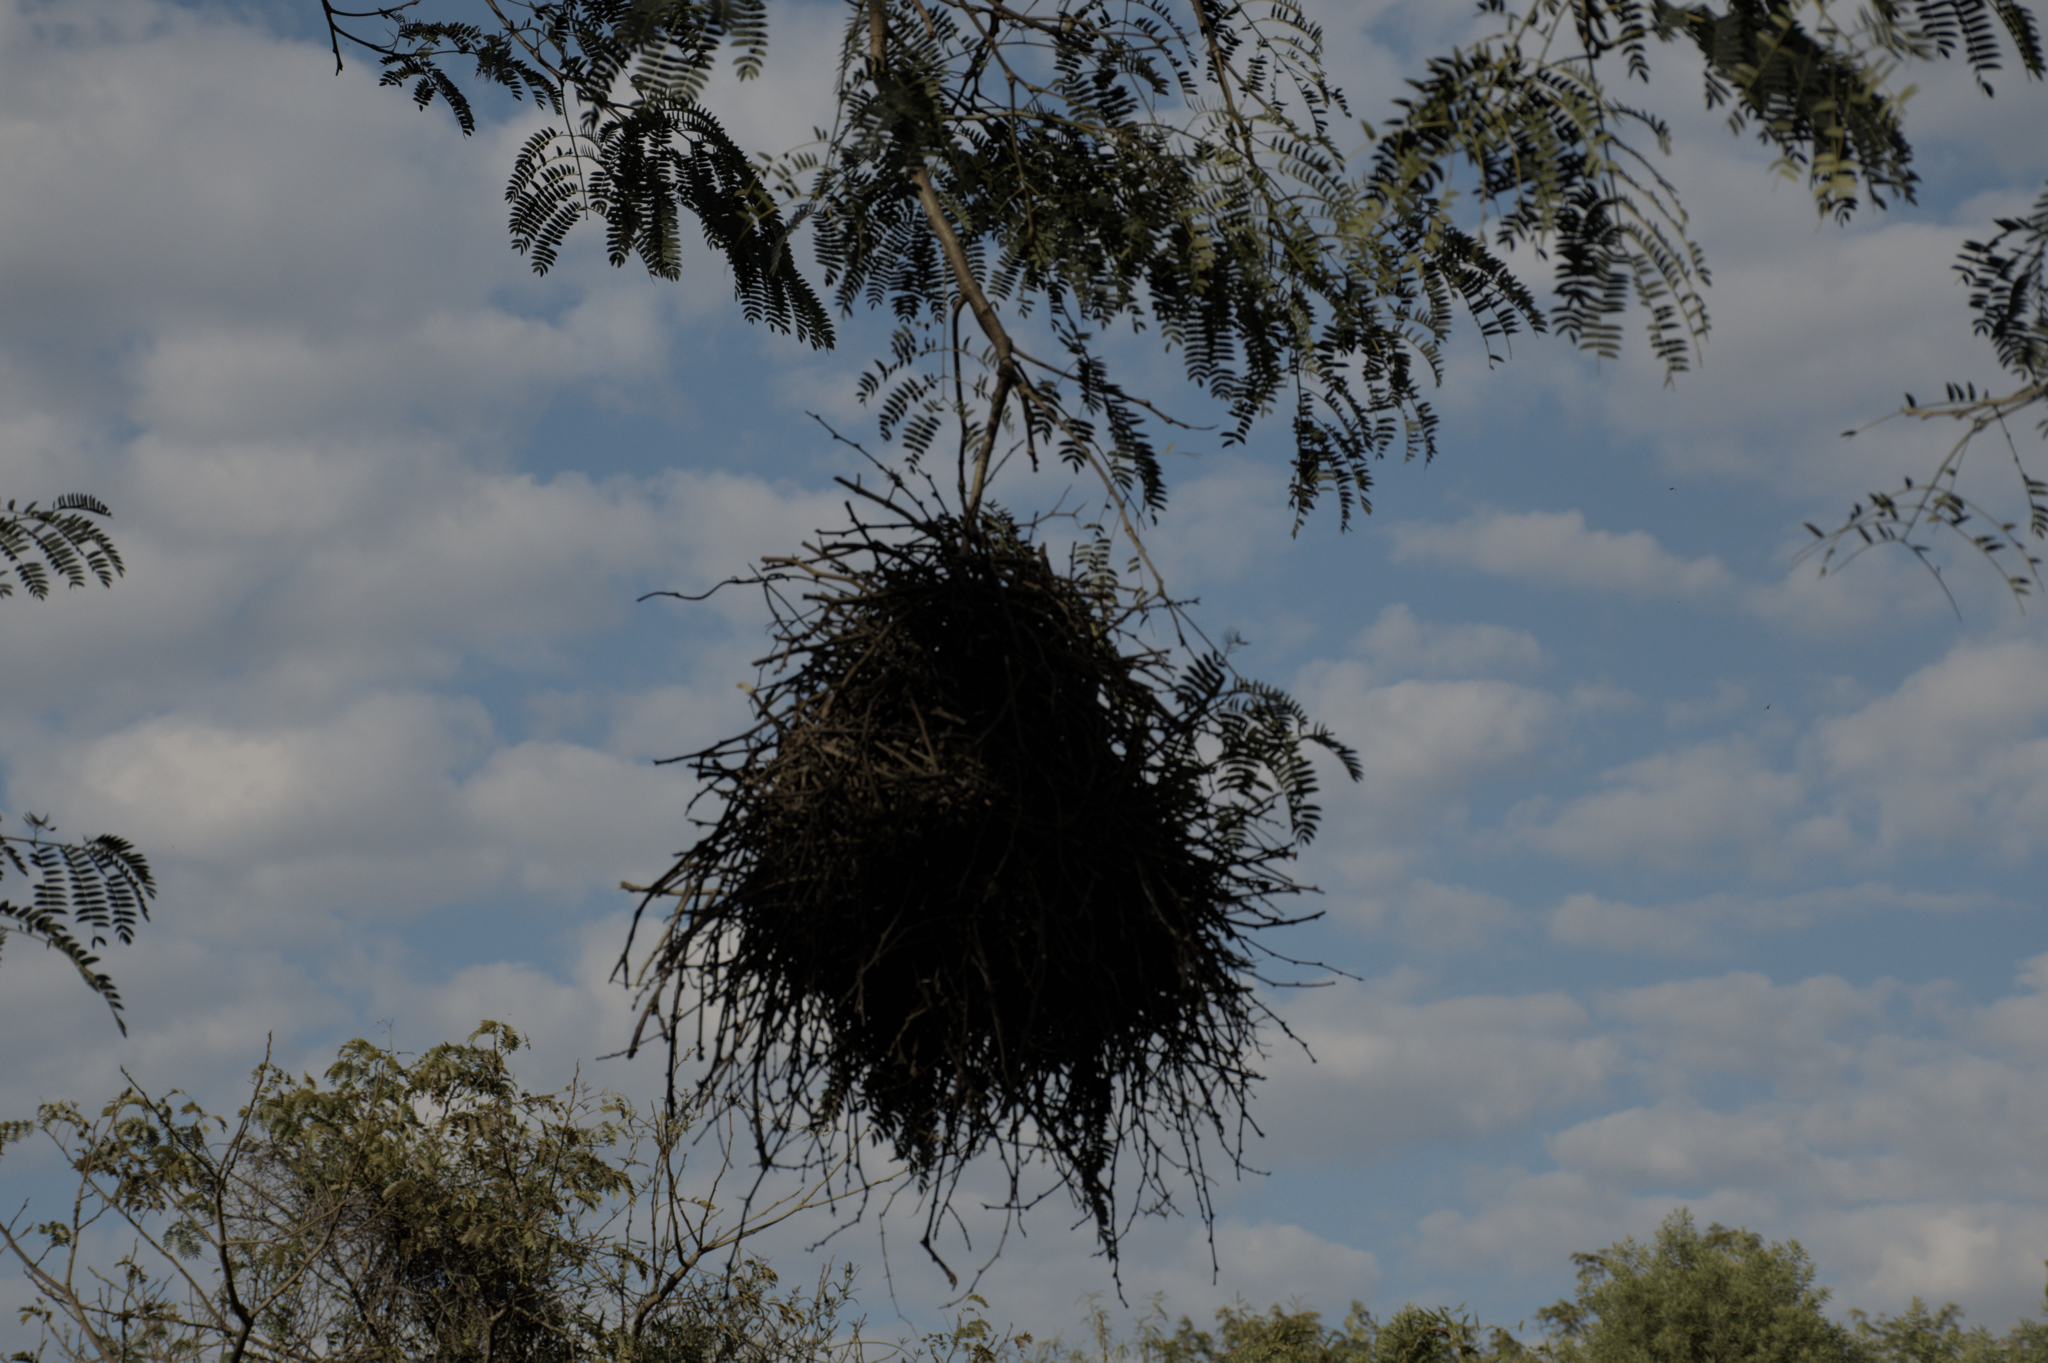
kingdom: Animalia
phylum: Chordata
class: Aves
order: Passeriformes
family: Furnariidae
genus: Phacellodomus
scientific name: Phacellodomus ruber
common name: Greater thornbird
